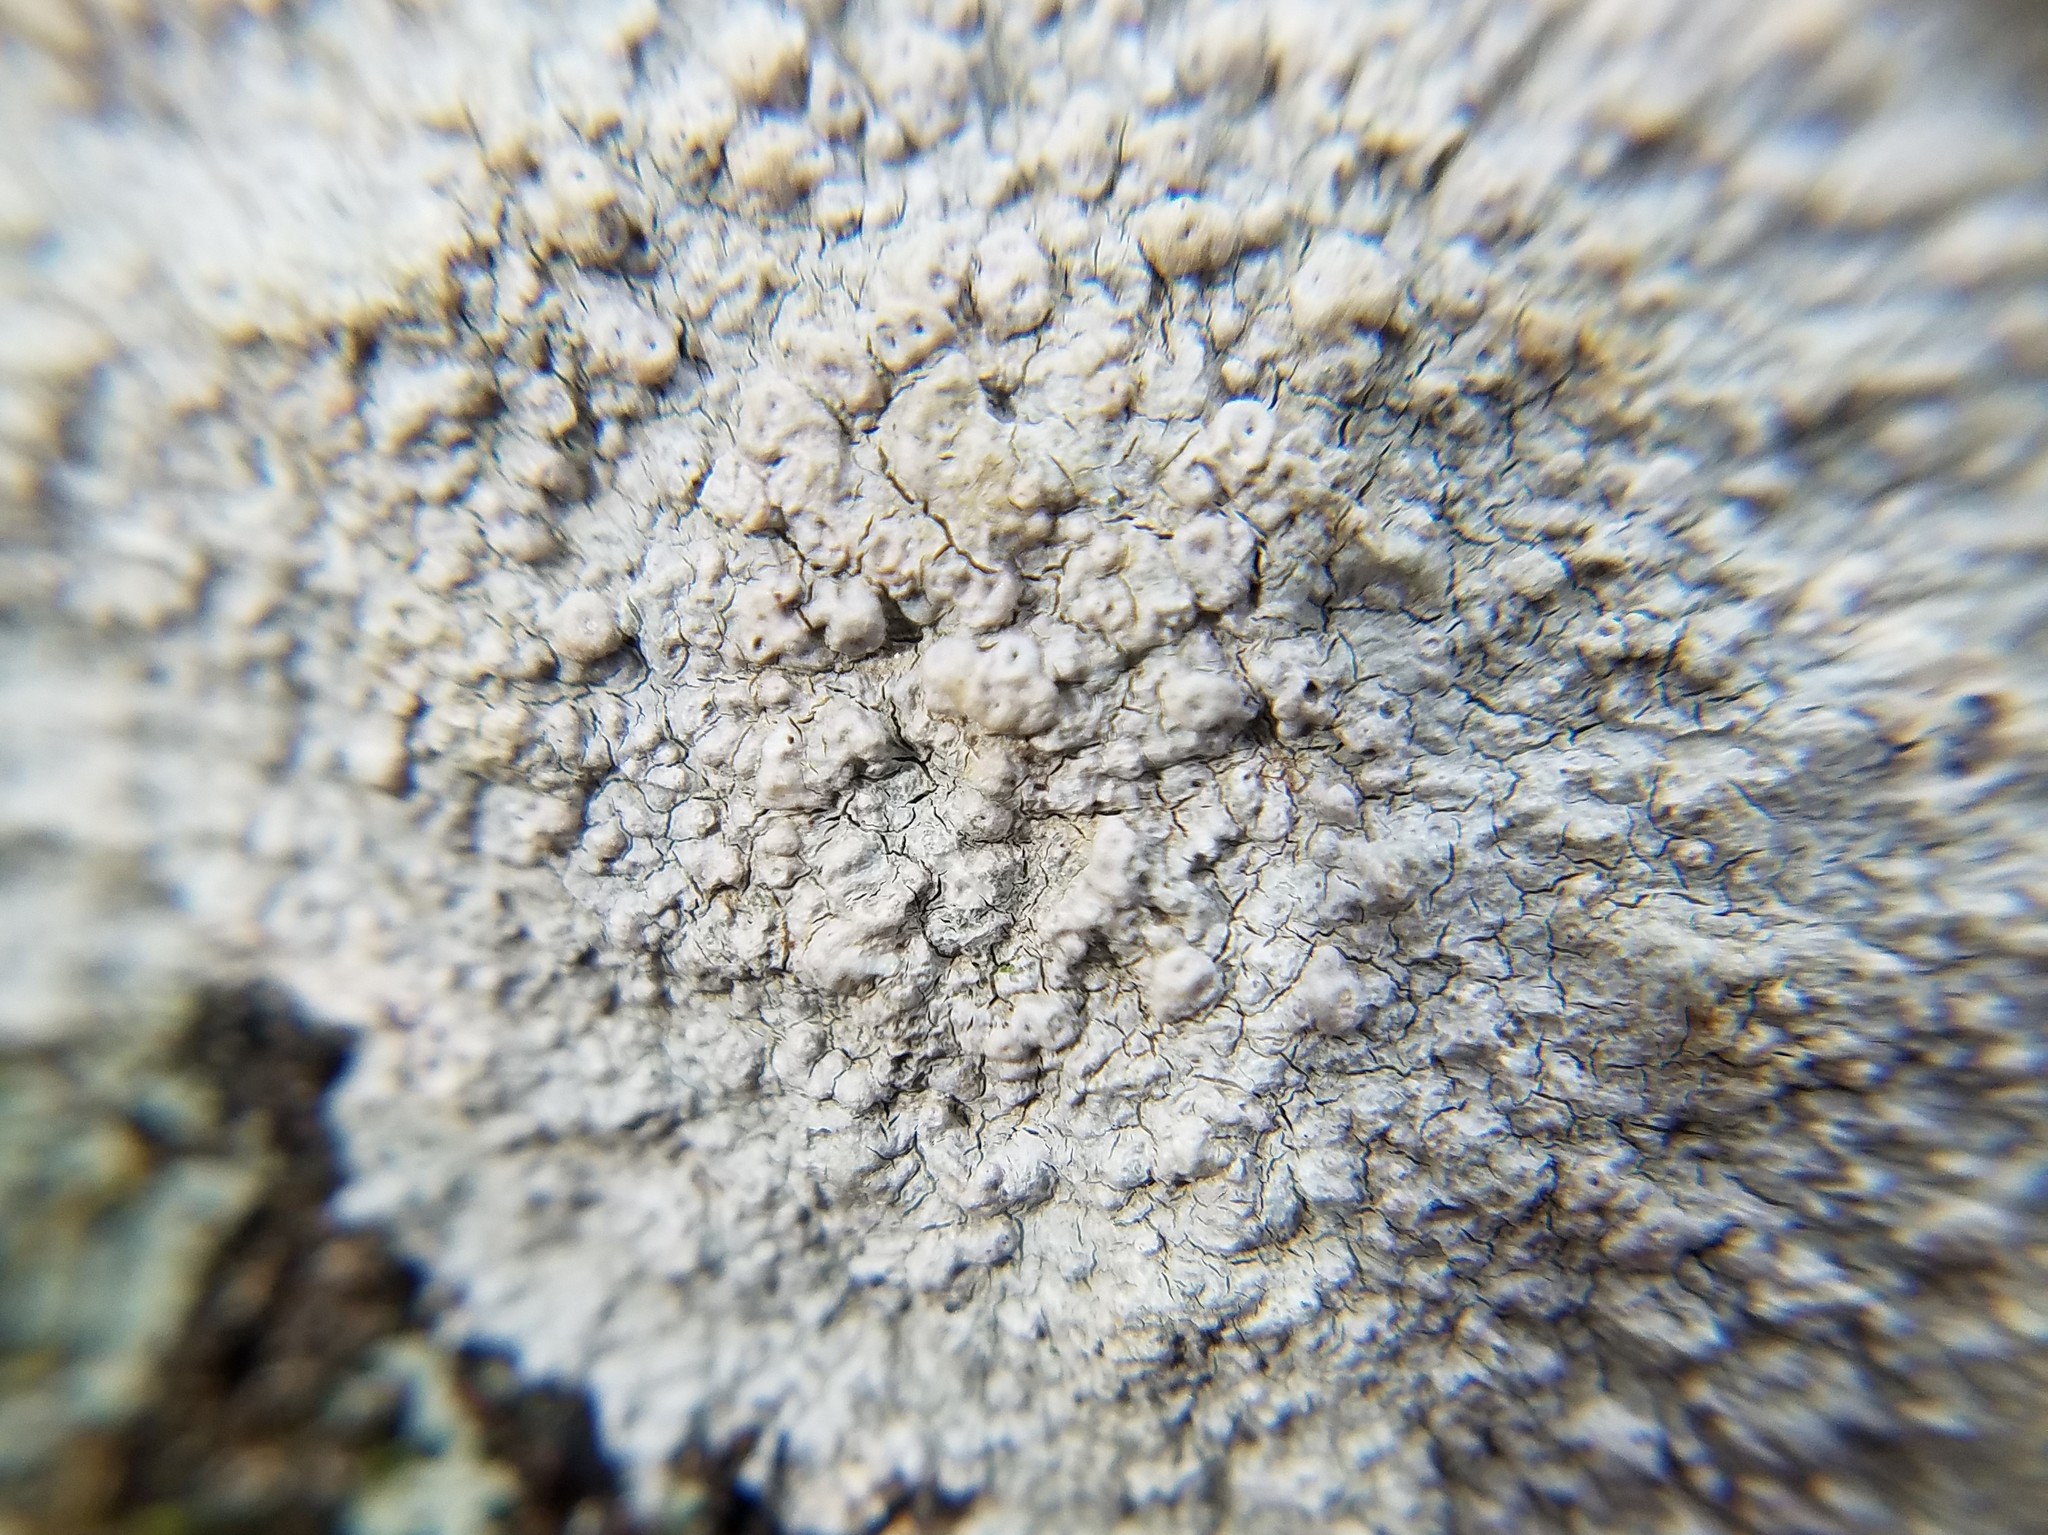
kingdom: Fungi
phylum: Ascomycota
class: Lecanoromycetes
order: Pertusariales
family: Pertusariaceae
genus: Pertusaria
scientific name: Pertusaria plittiana
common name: Rock wart lichen
